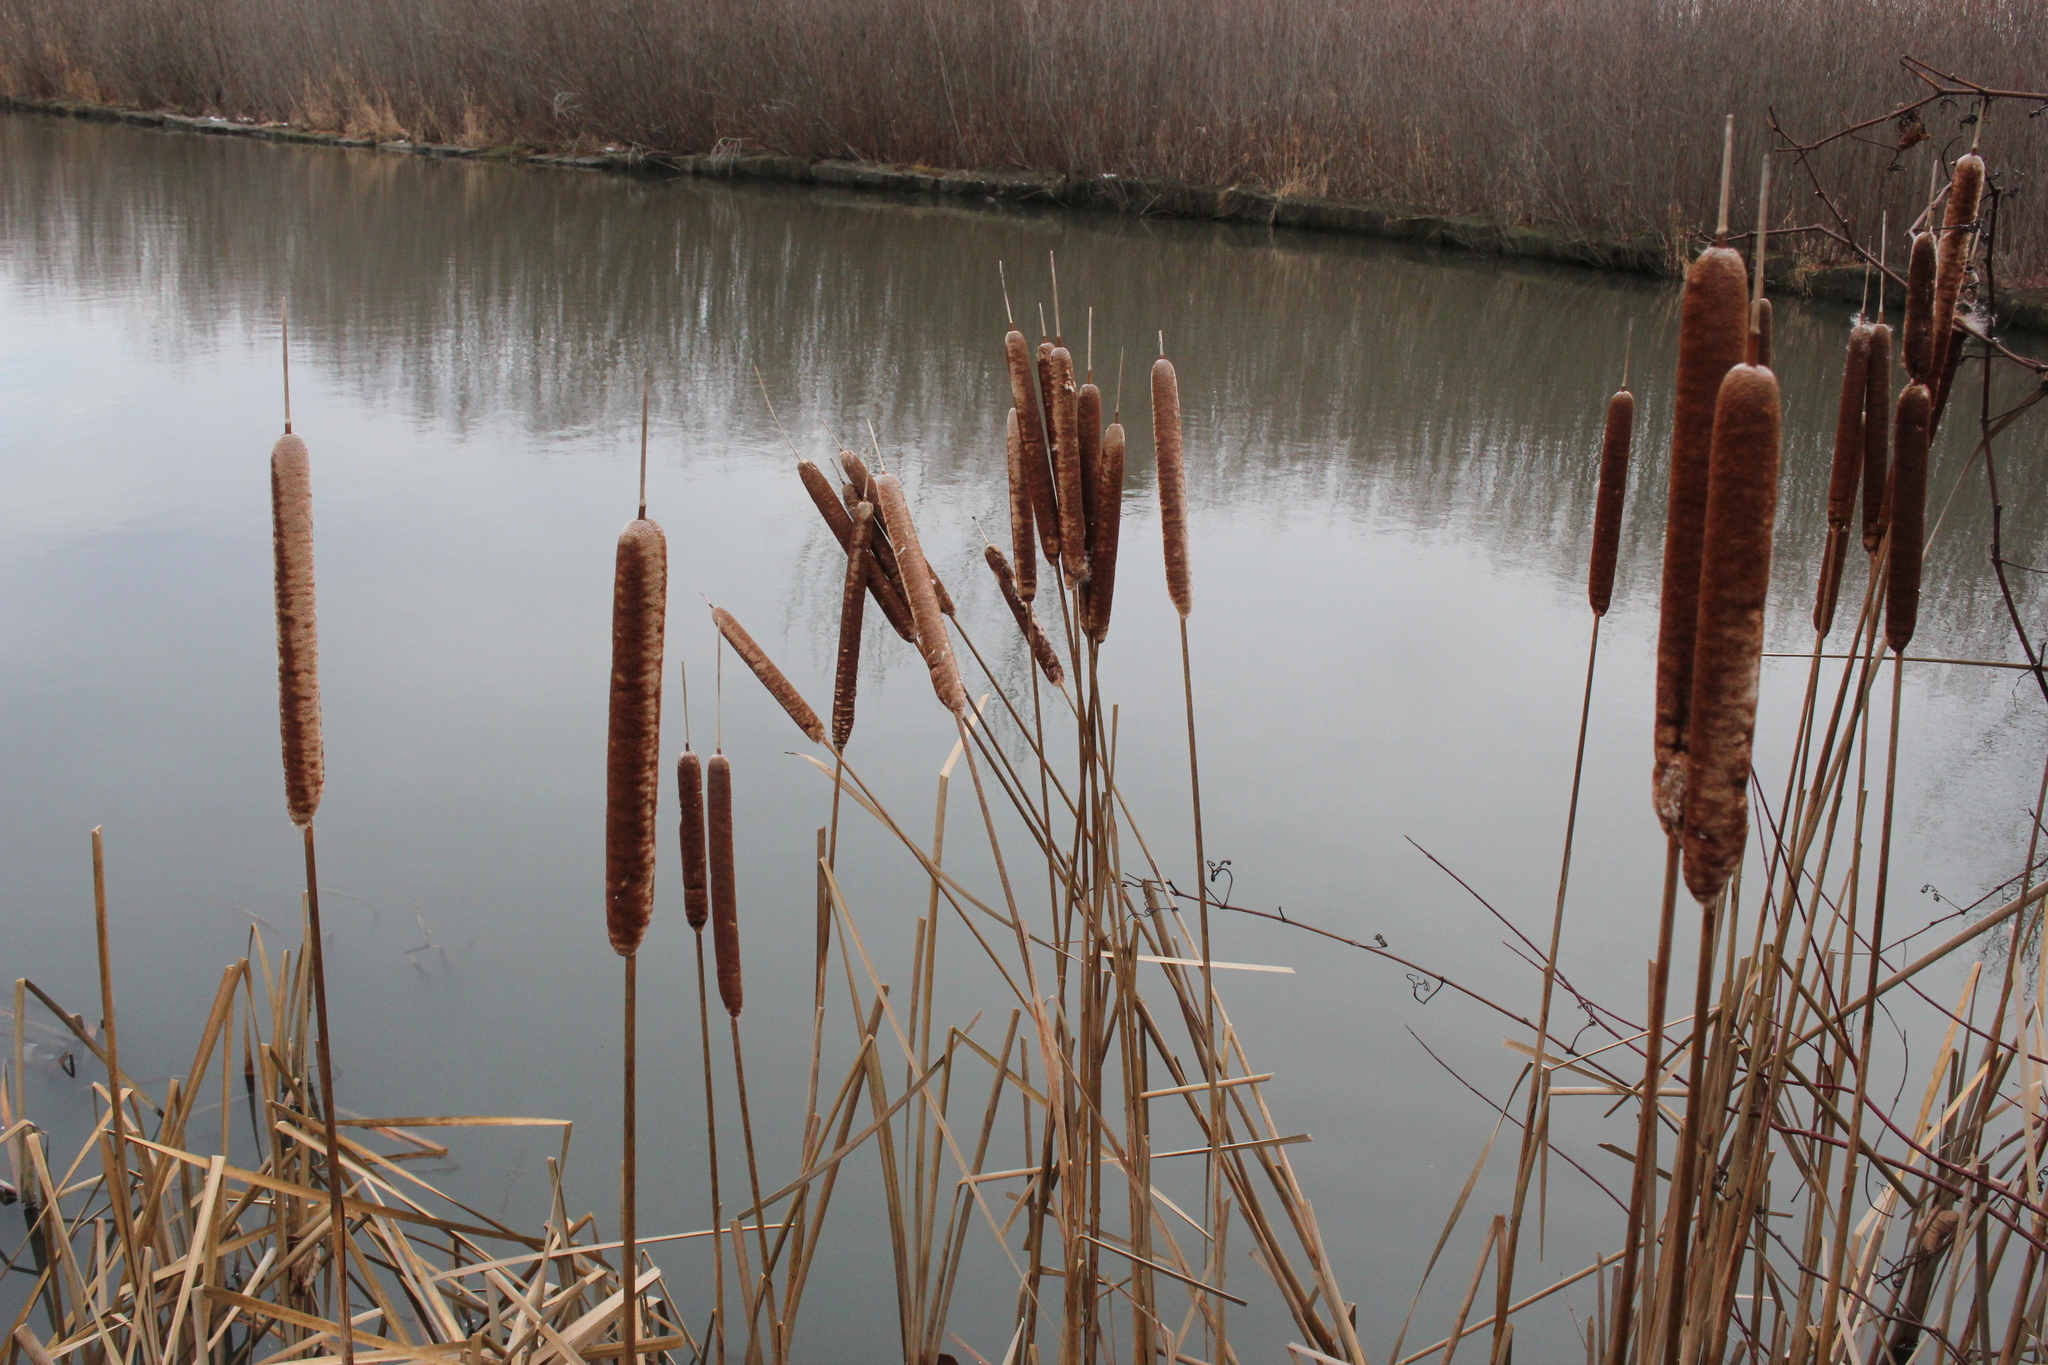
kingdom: Plantae
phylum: Tracheophyta
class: Liliopsida
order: Poales
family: Typhaceae
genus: Typha
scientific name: Typha glauca
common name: Blue cattail
